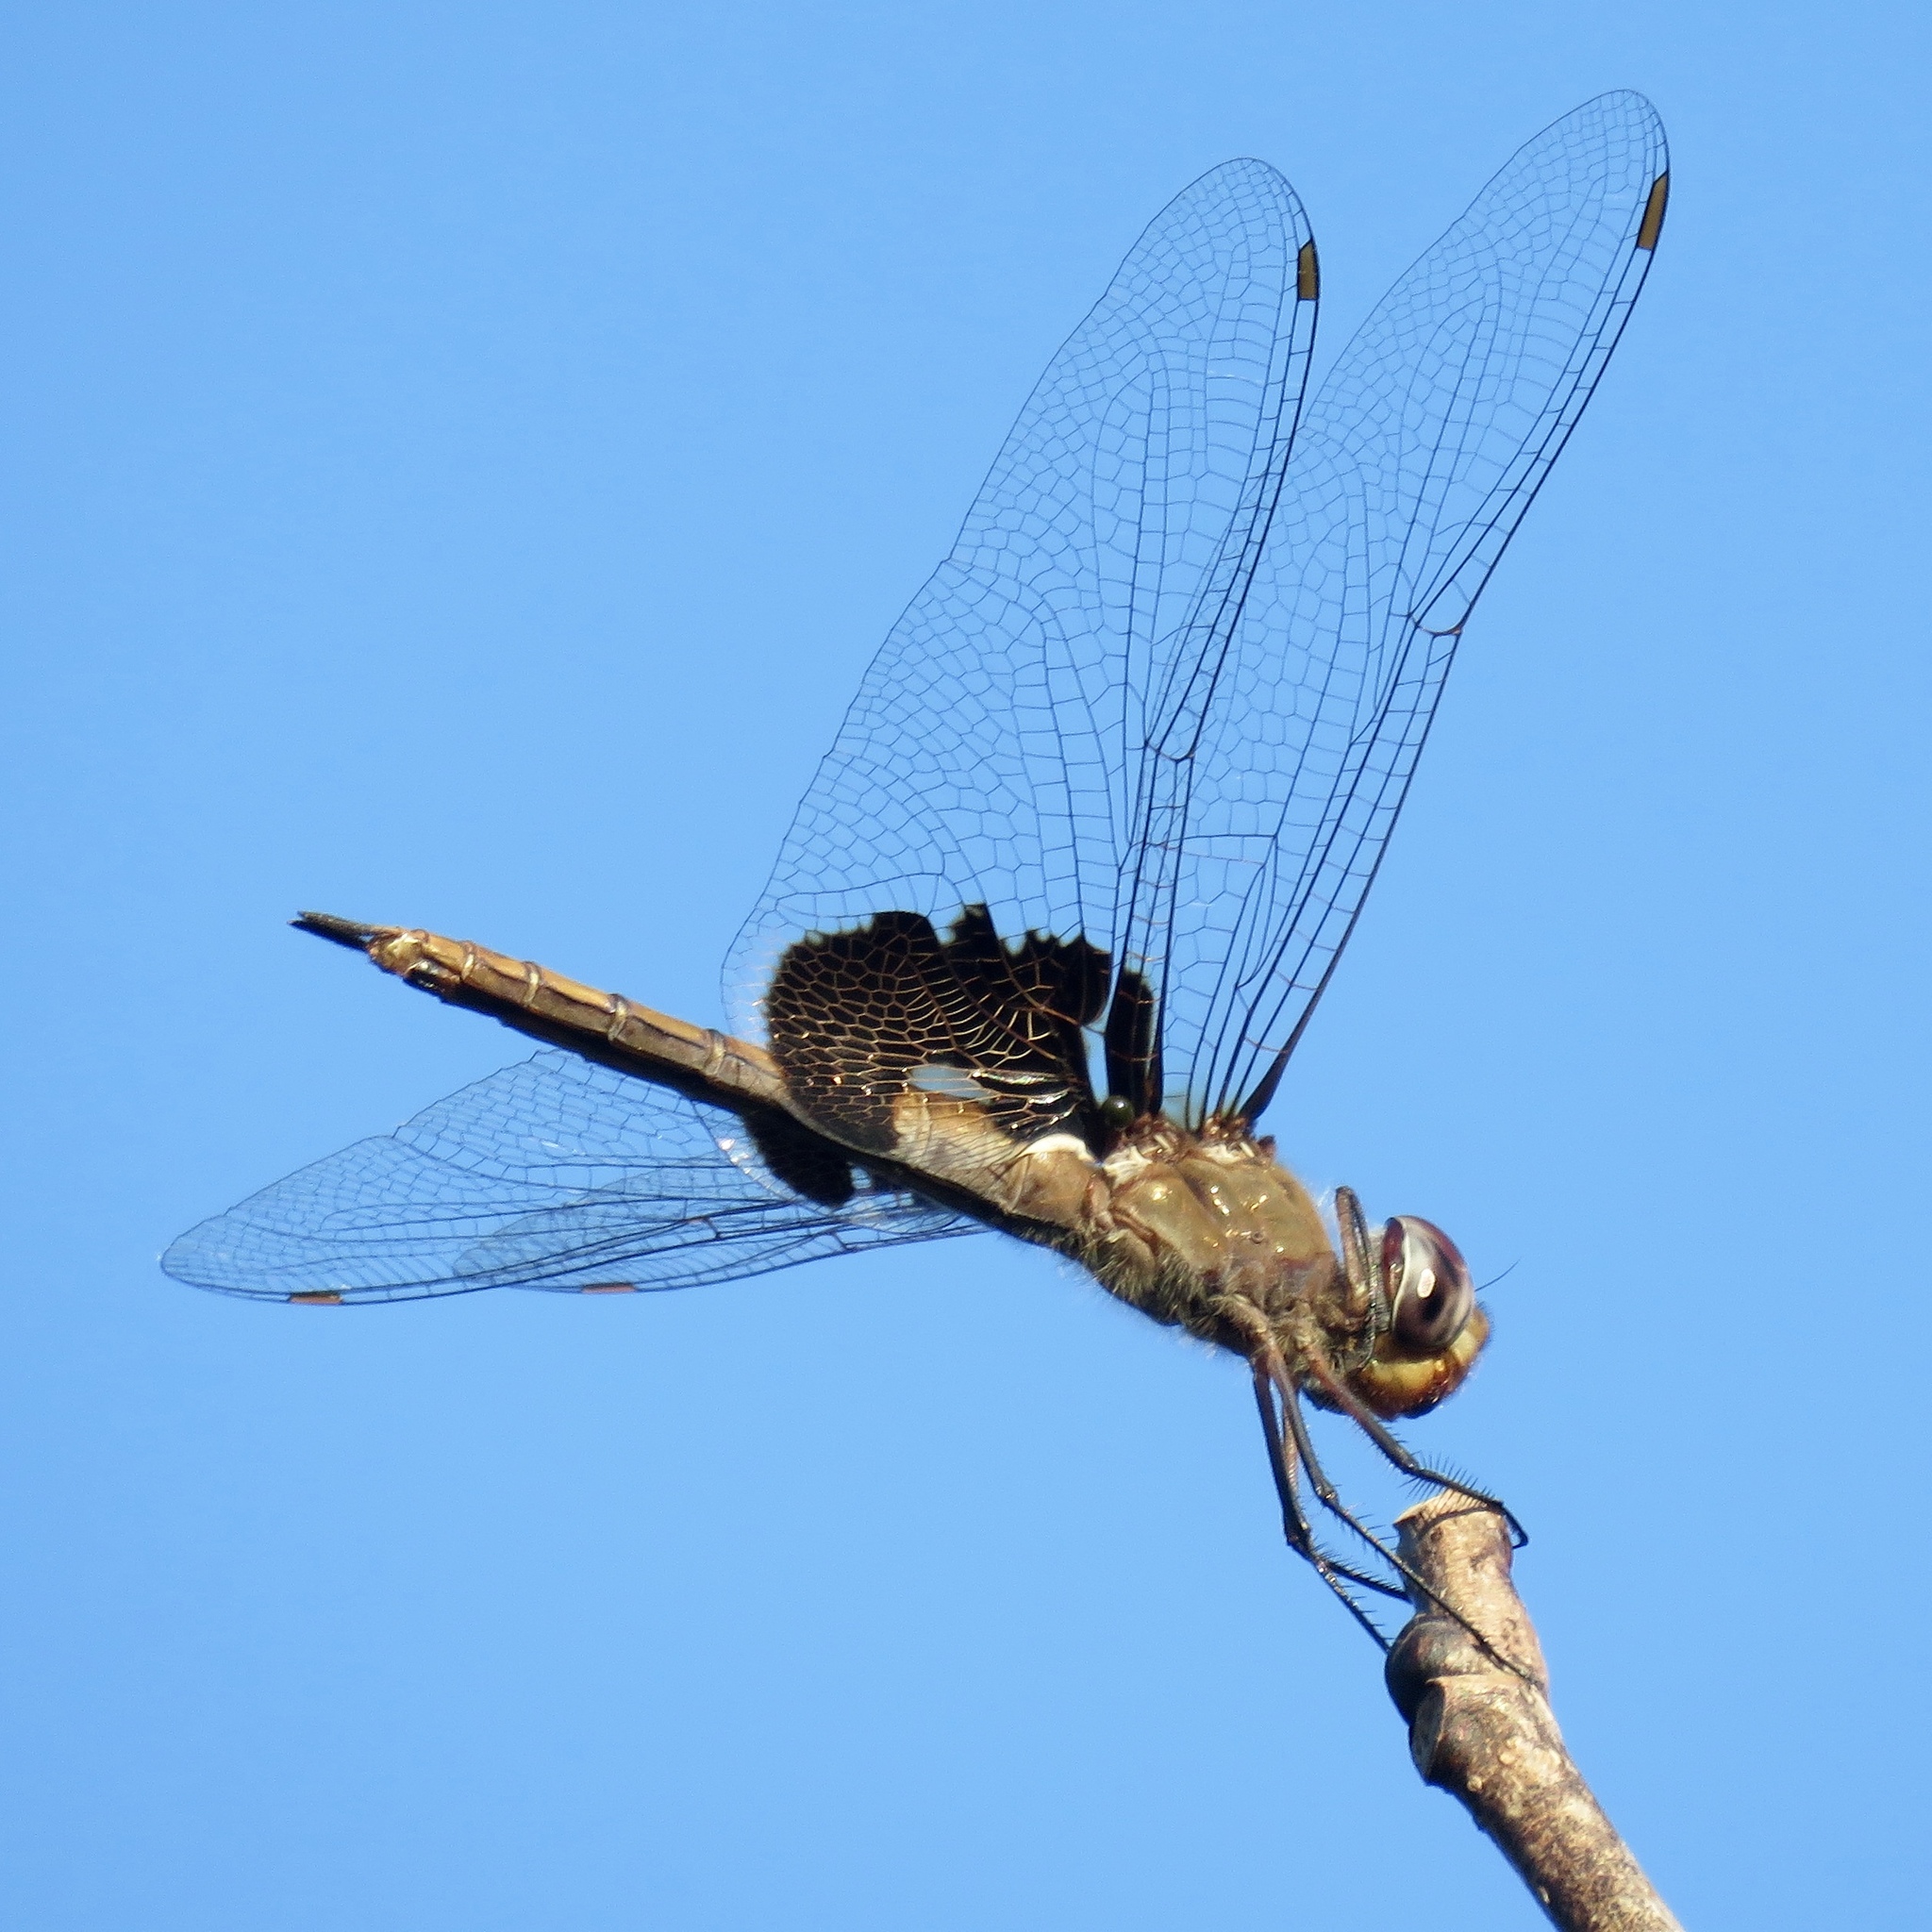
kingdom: Animalia
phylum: Arthropoda
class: Insecta
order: Odonata
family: Libellulidae
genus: Tramea
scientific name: Tramea lacerata
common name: Black saddlebags
